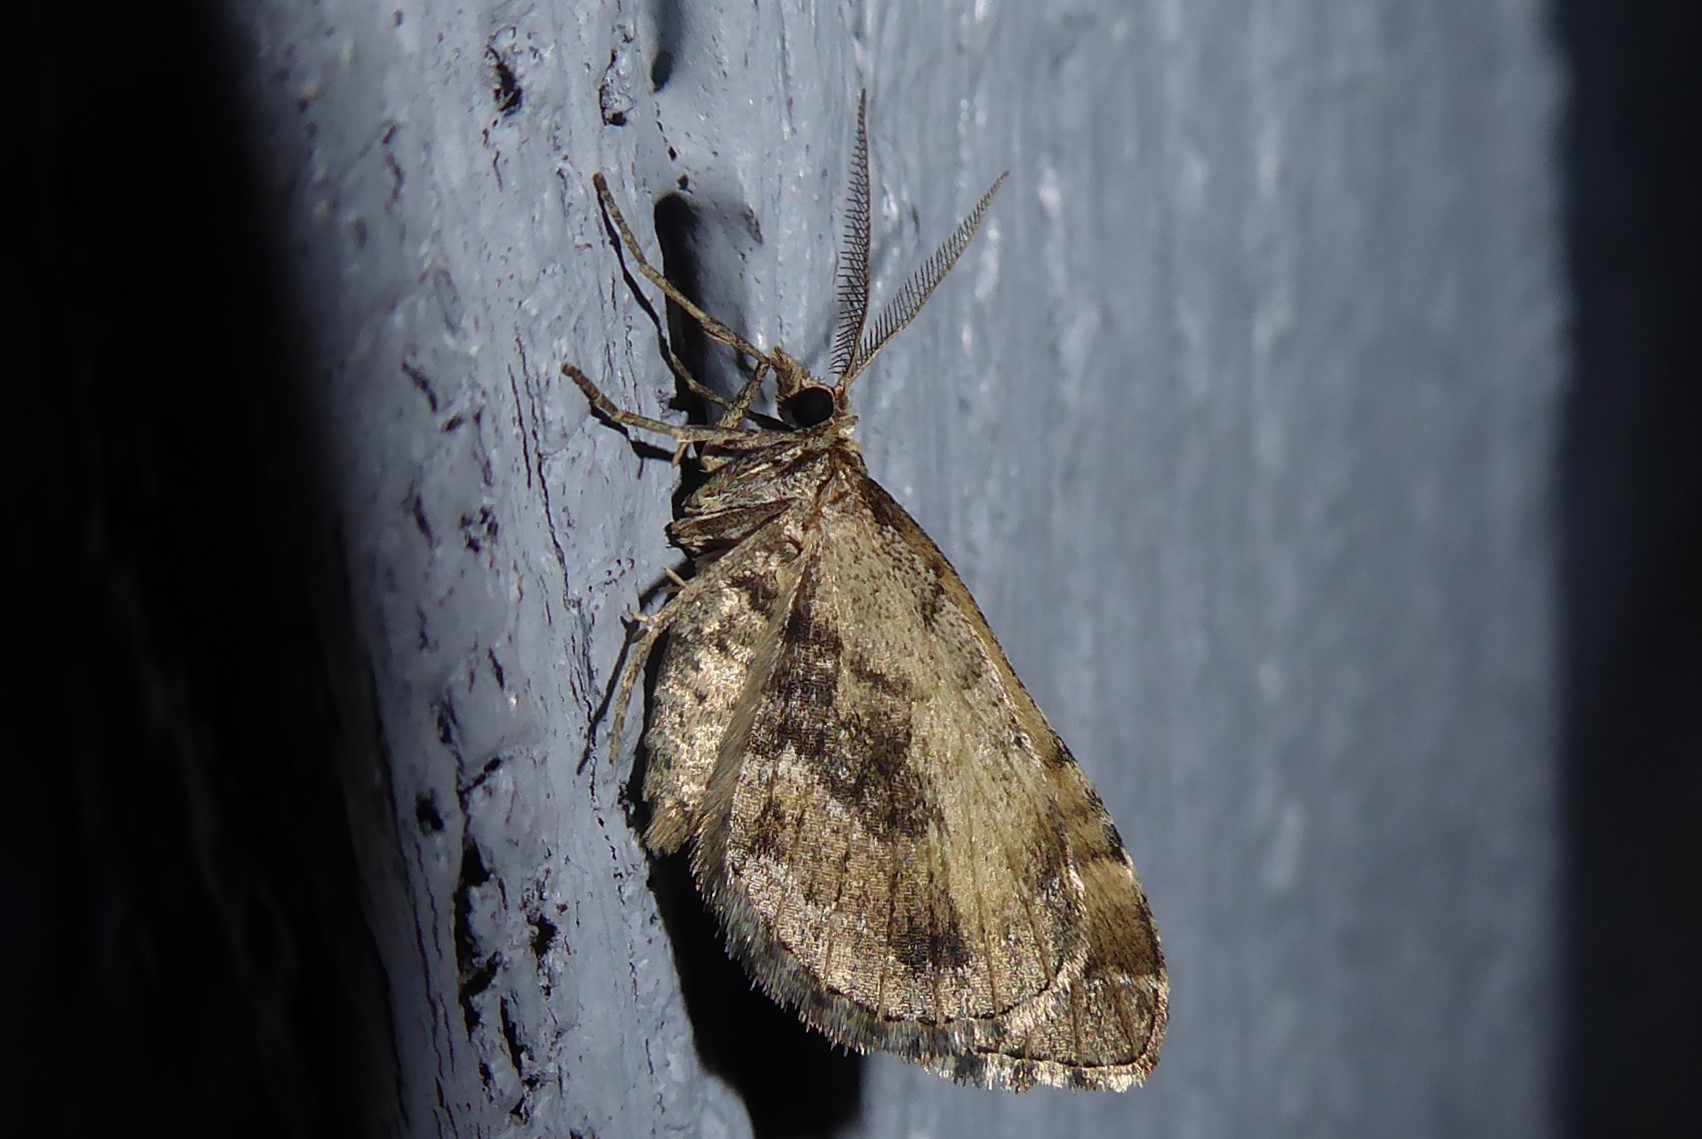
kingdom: Animalia
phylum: Arthropoda
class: Insecta
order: Lepidoptera
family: Geometridae
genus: Asaphodes
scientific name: Asaphodes aegrota
